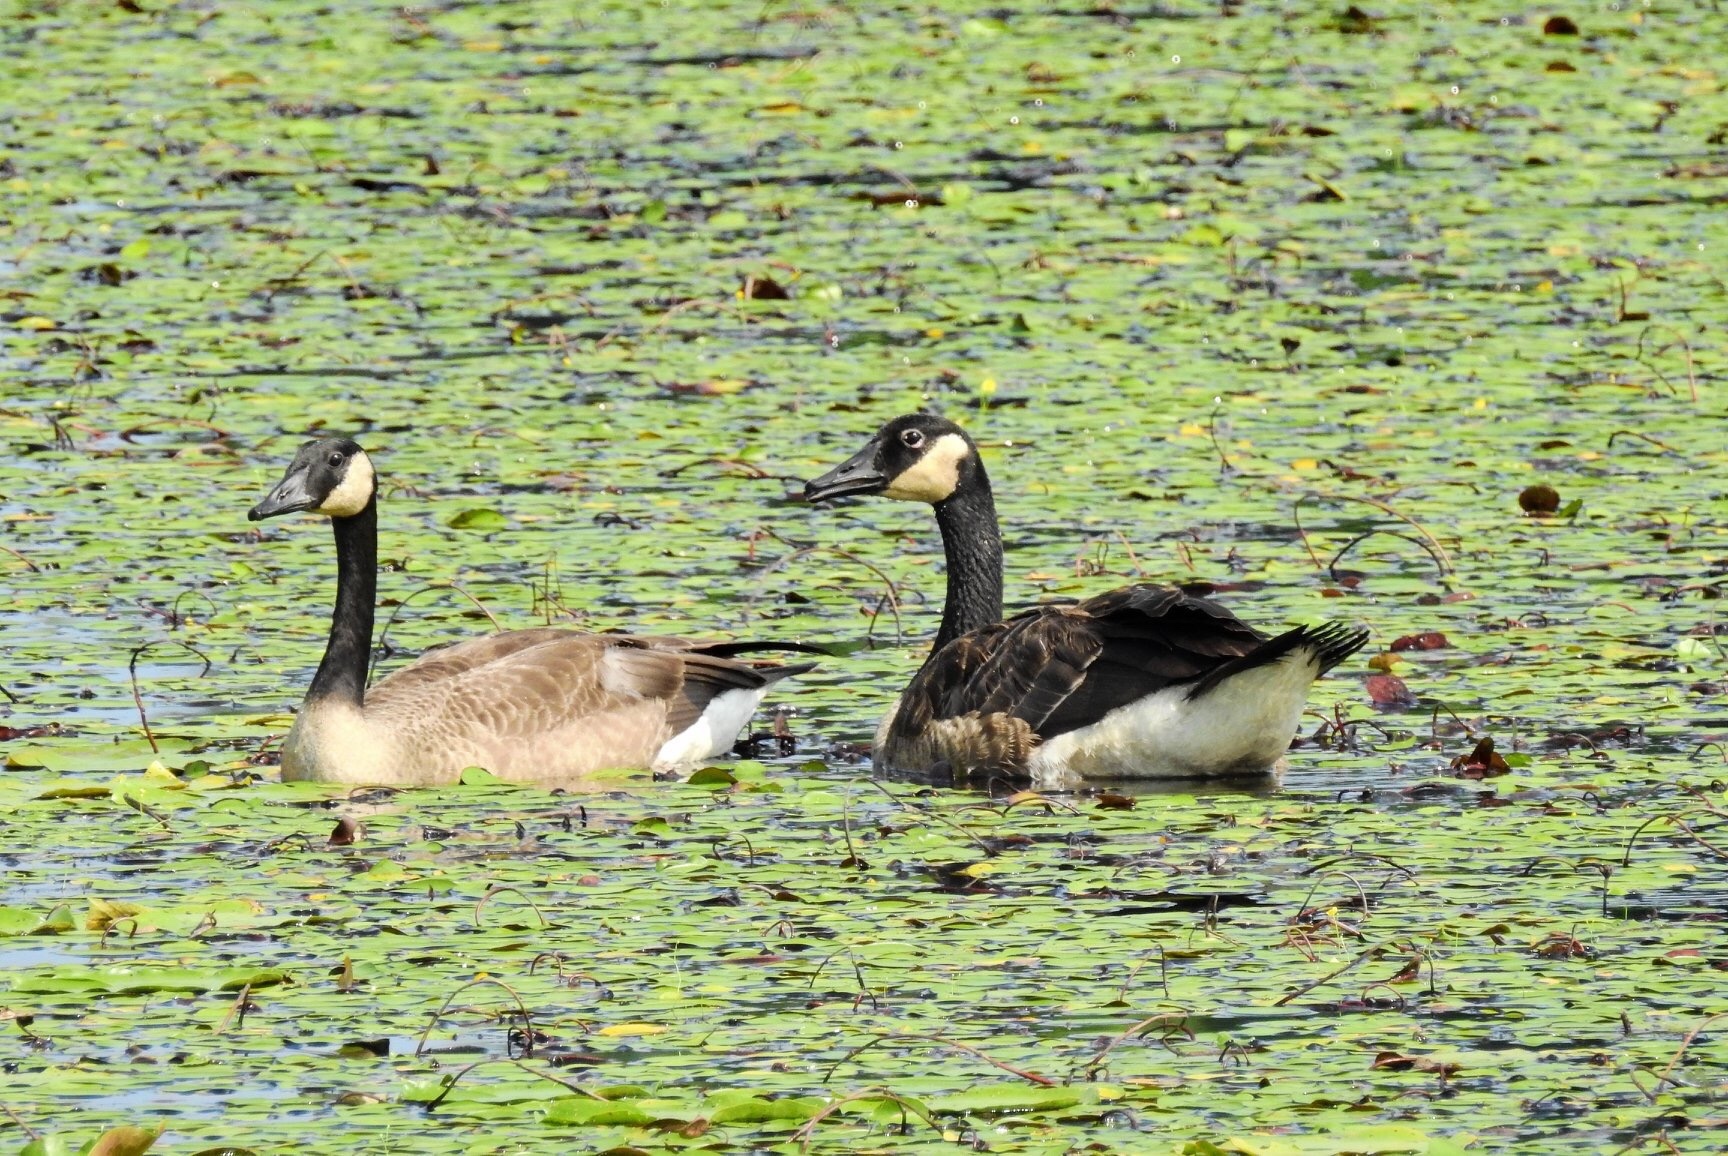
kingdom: Animalia
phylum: Chordata
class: Aves
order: Anseriformes
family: Anatidae
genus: Branta
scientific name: Branta canadensis
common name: Canada goose
